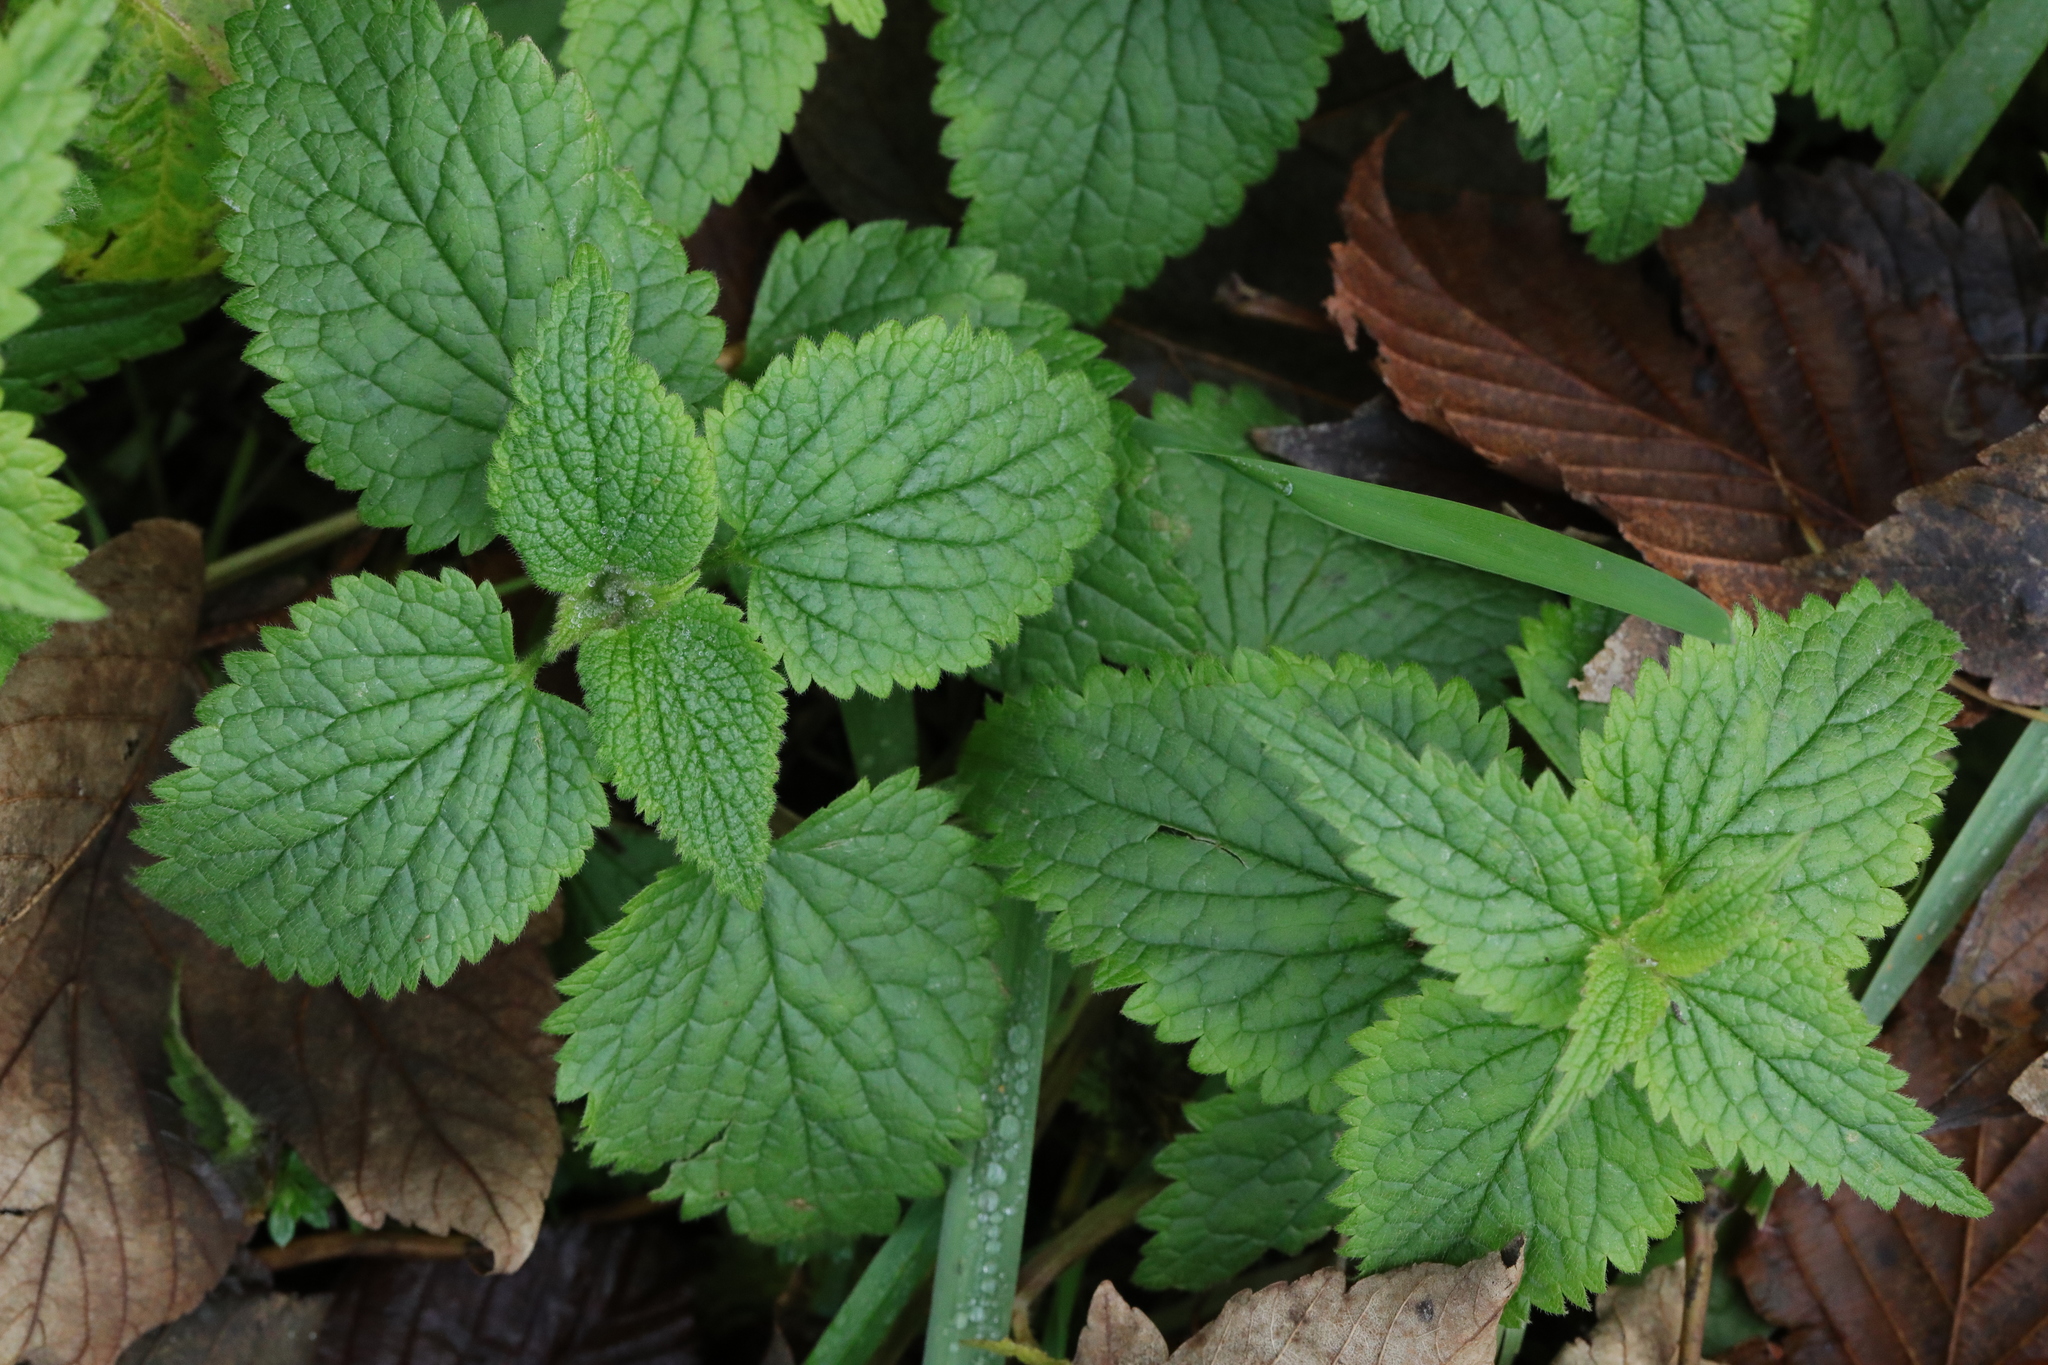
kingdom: Plantae
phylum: Tracheophyta
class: Magnoliopsida
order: Lamiales
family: Lamiaceae
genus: Lamium
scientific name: Lamium album
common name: White dead-nettle
